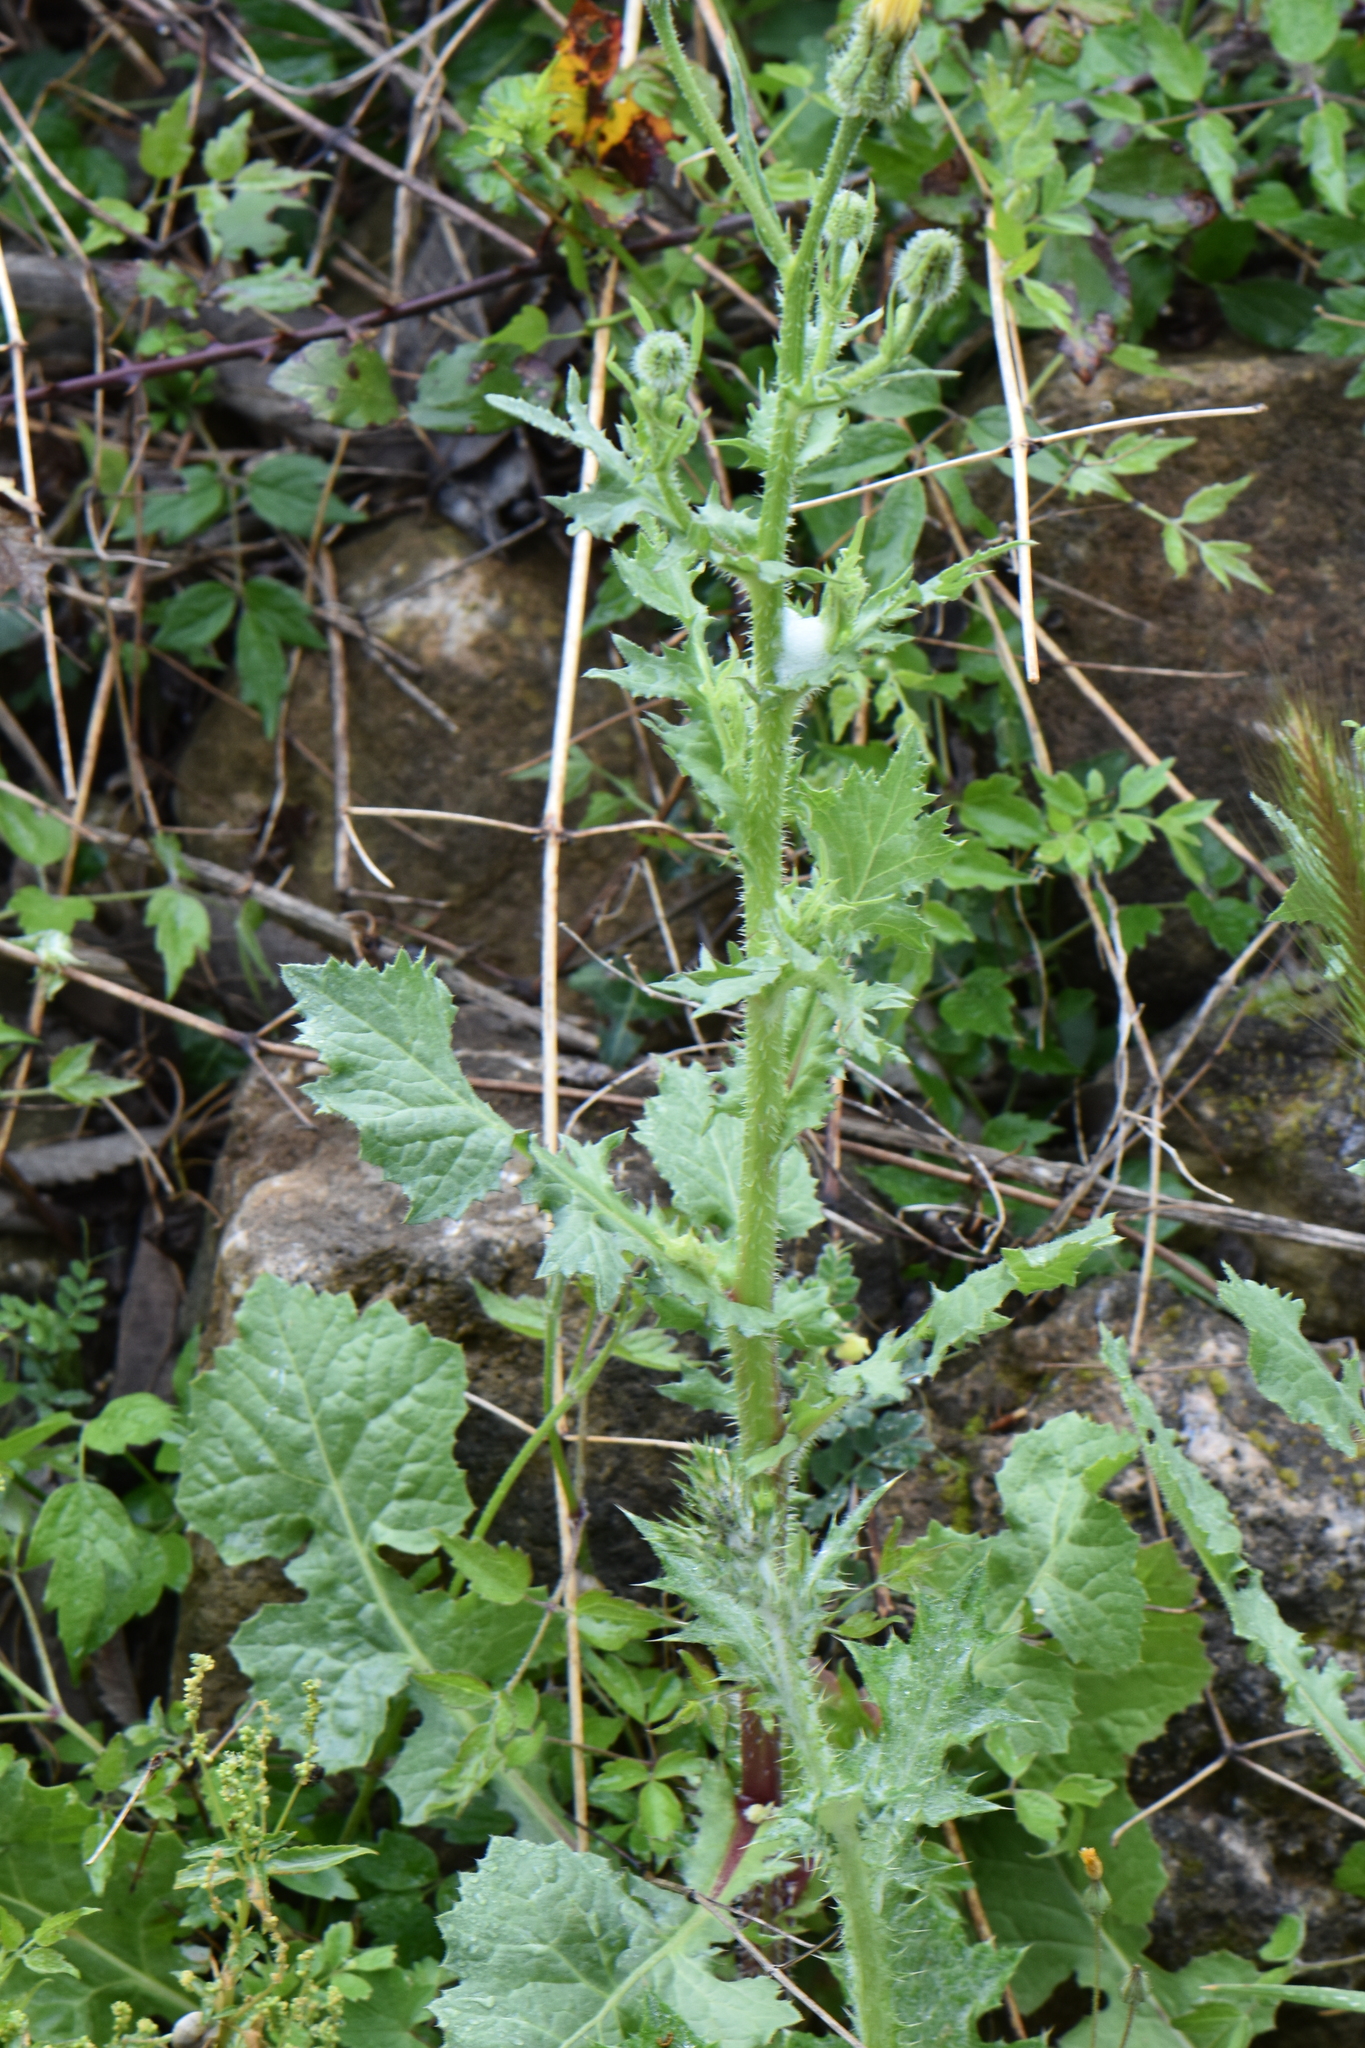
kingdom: Plantae
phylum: Tracheophyta
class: Magnoliopsida
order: Asterales
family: Asteraceae
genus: Urospermum
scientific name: Urospermum picroides
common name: False hawkbit
